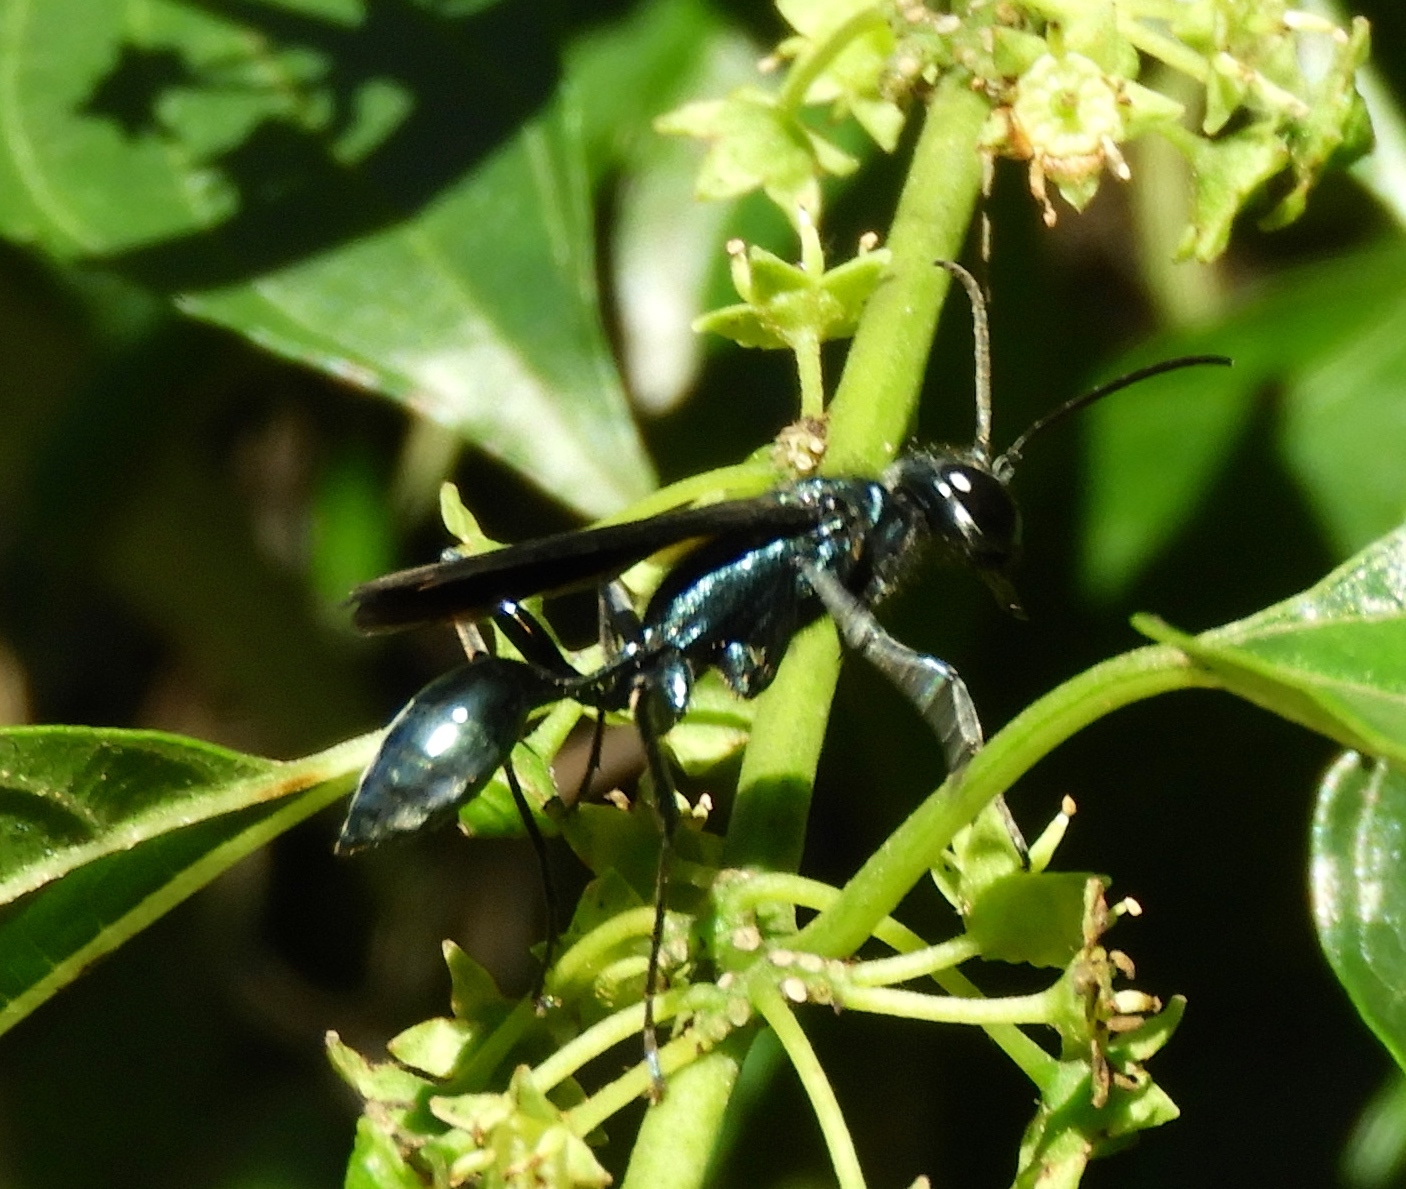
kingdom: Animalia
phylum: Arthropoda
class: Insecta
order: Hymenoptera
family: Sphecidae
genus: Chalybion
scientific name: Chalybion
